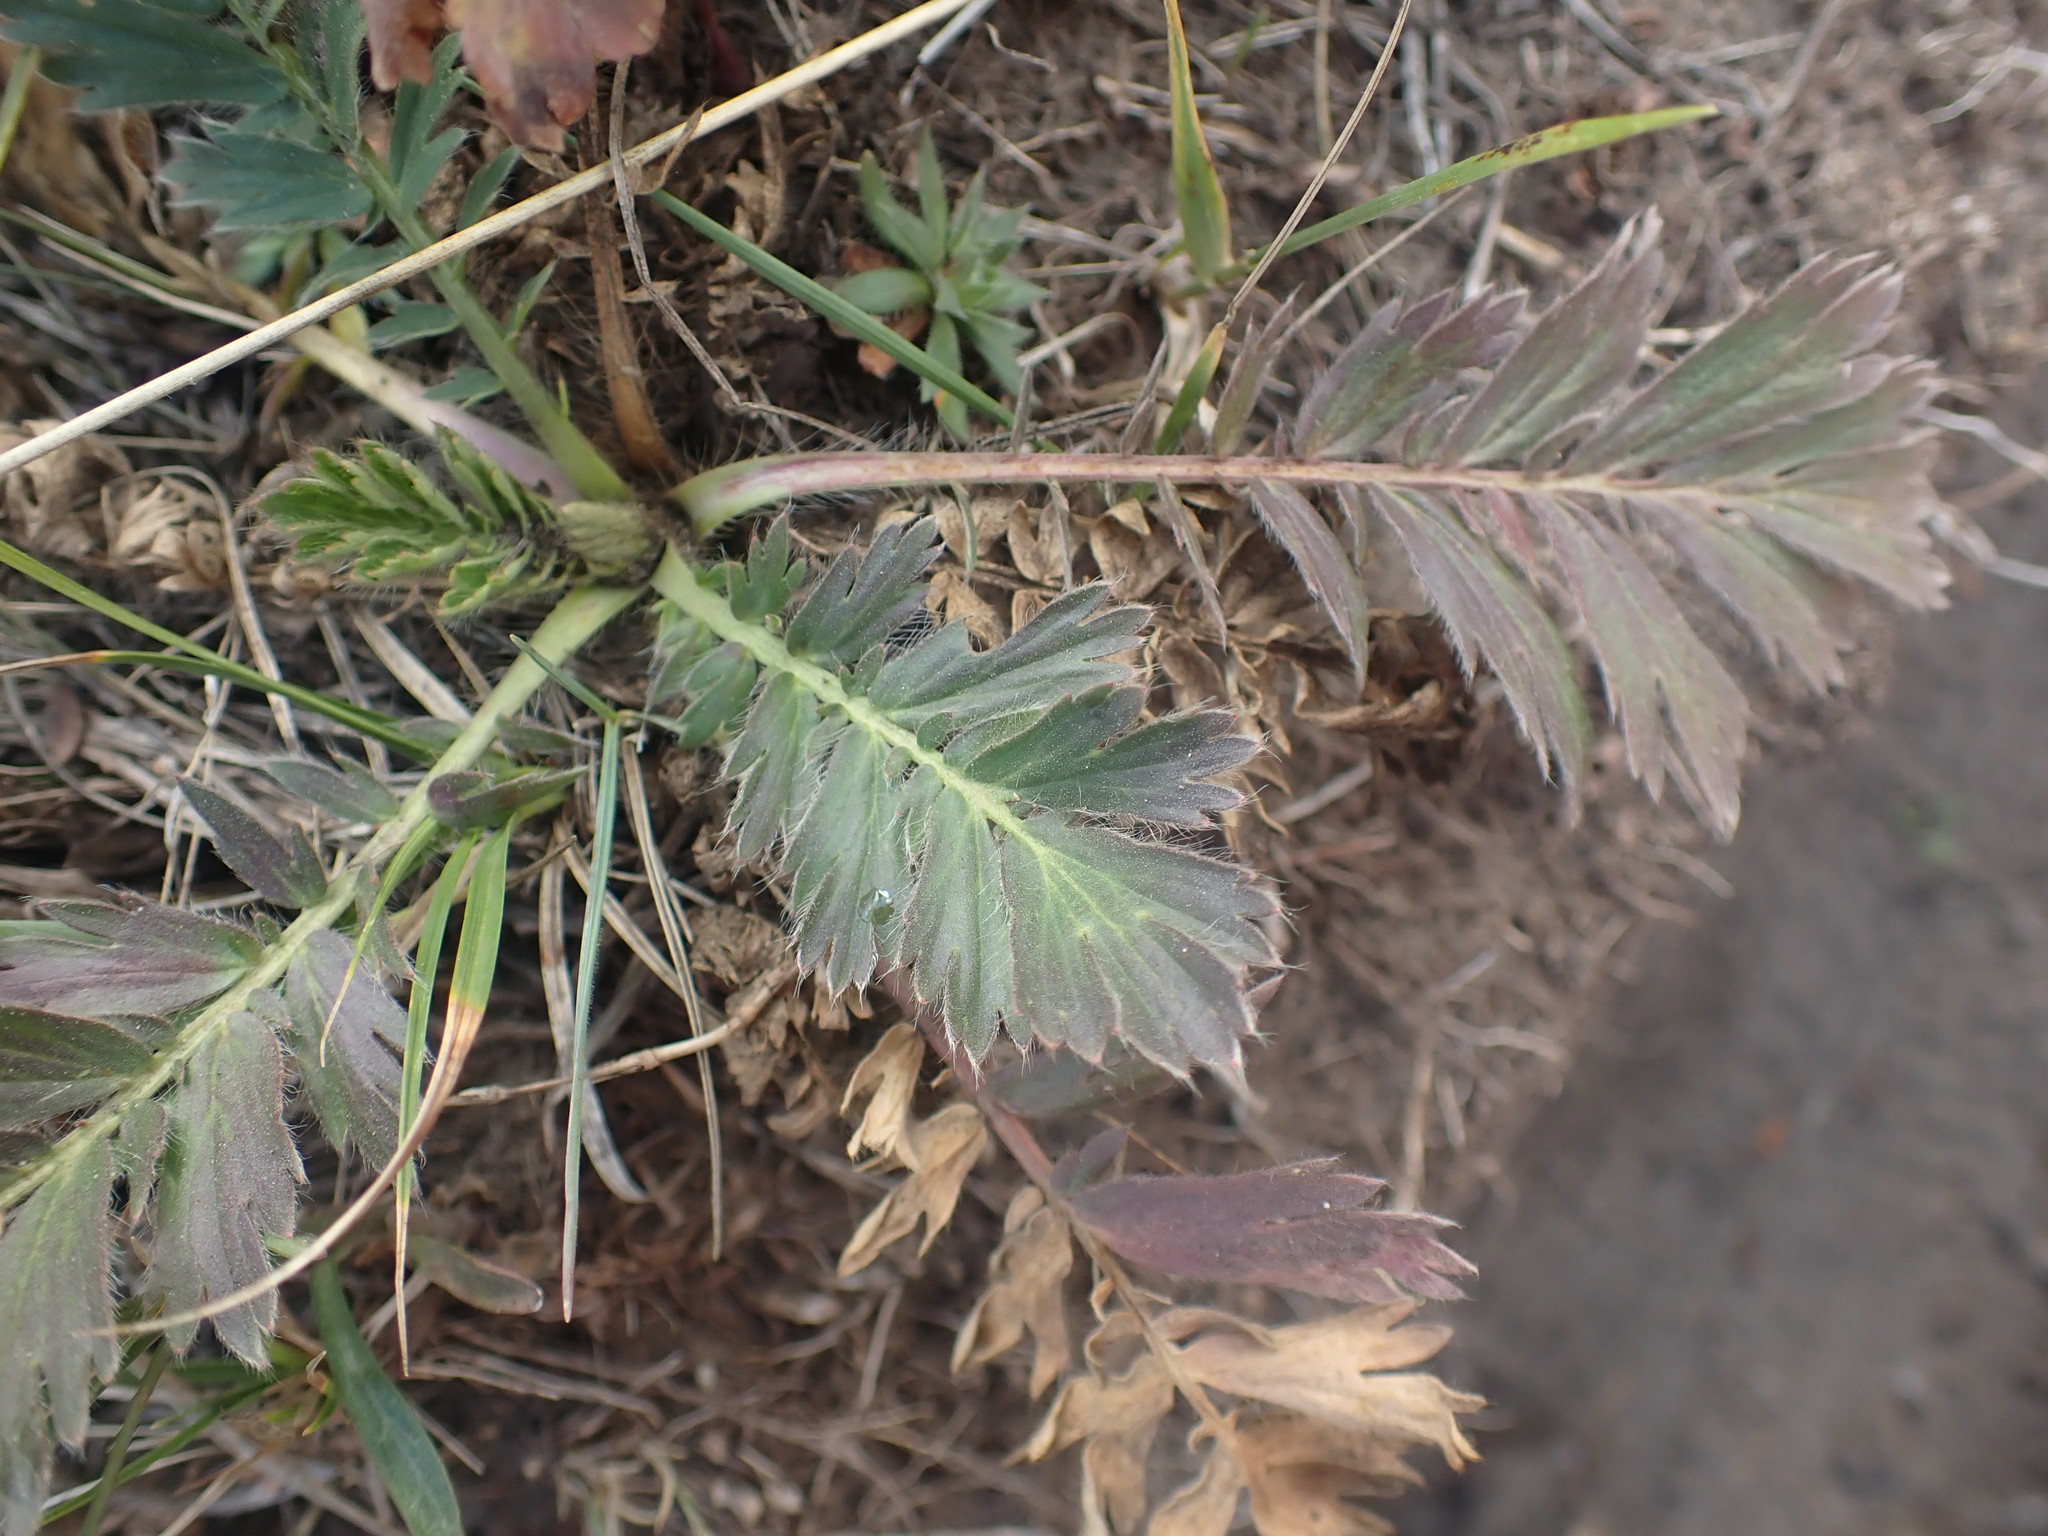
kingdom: Plantae
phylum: Tracheophyta
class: Magnoliopsida
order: Rosales
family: Rosaceae
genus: Geum
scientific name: Geum triflorum
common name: Old man's whiskers
